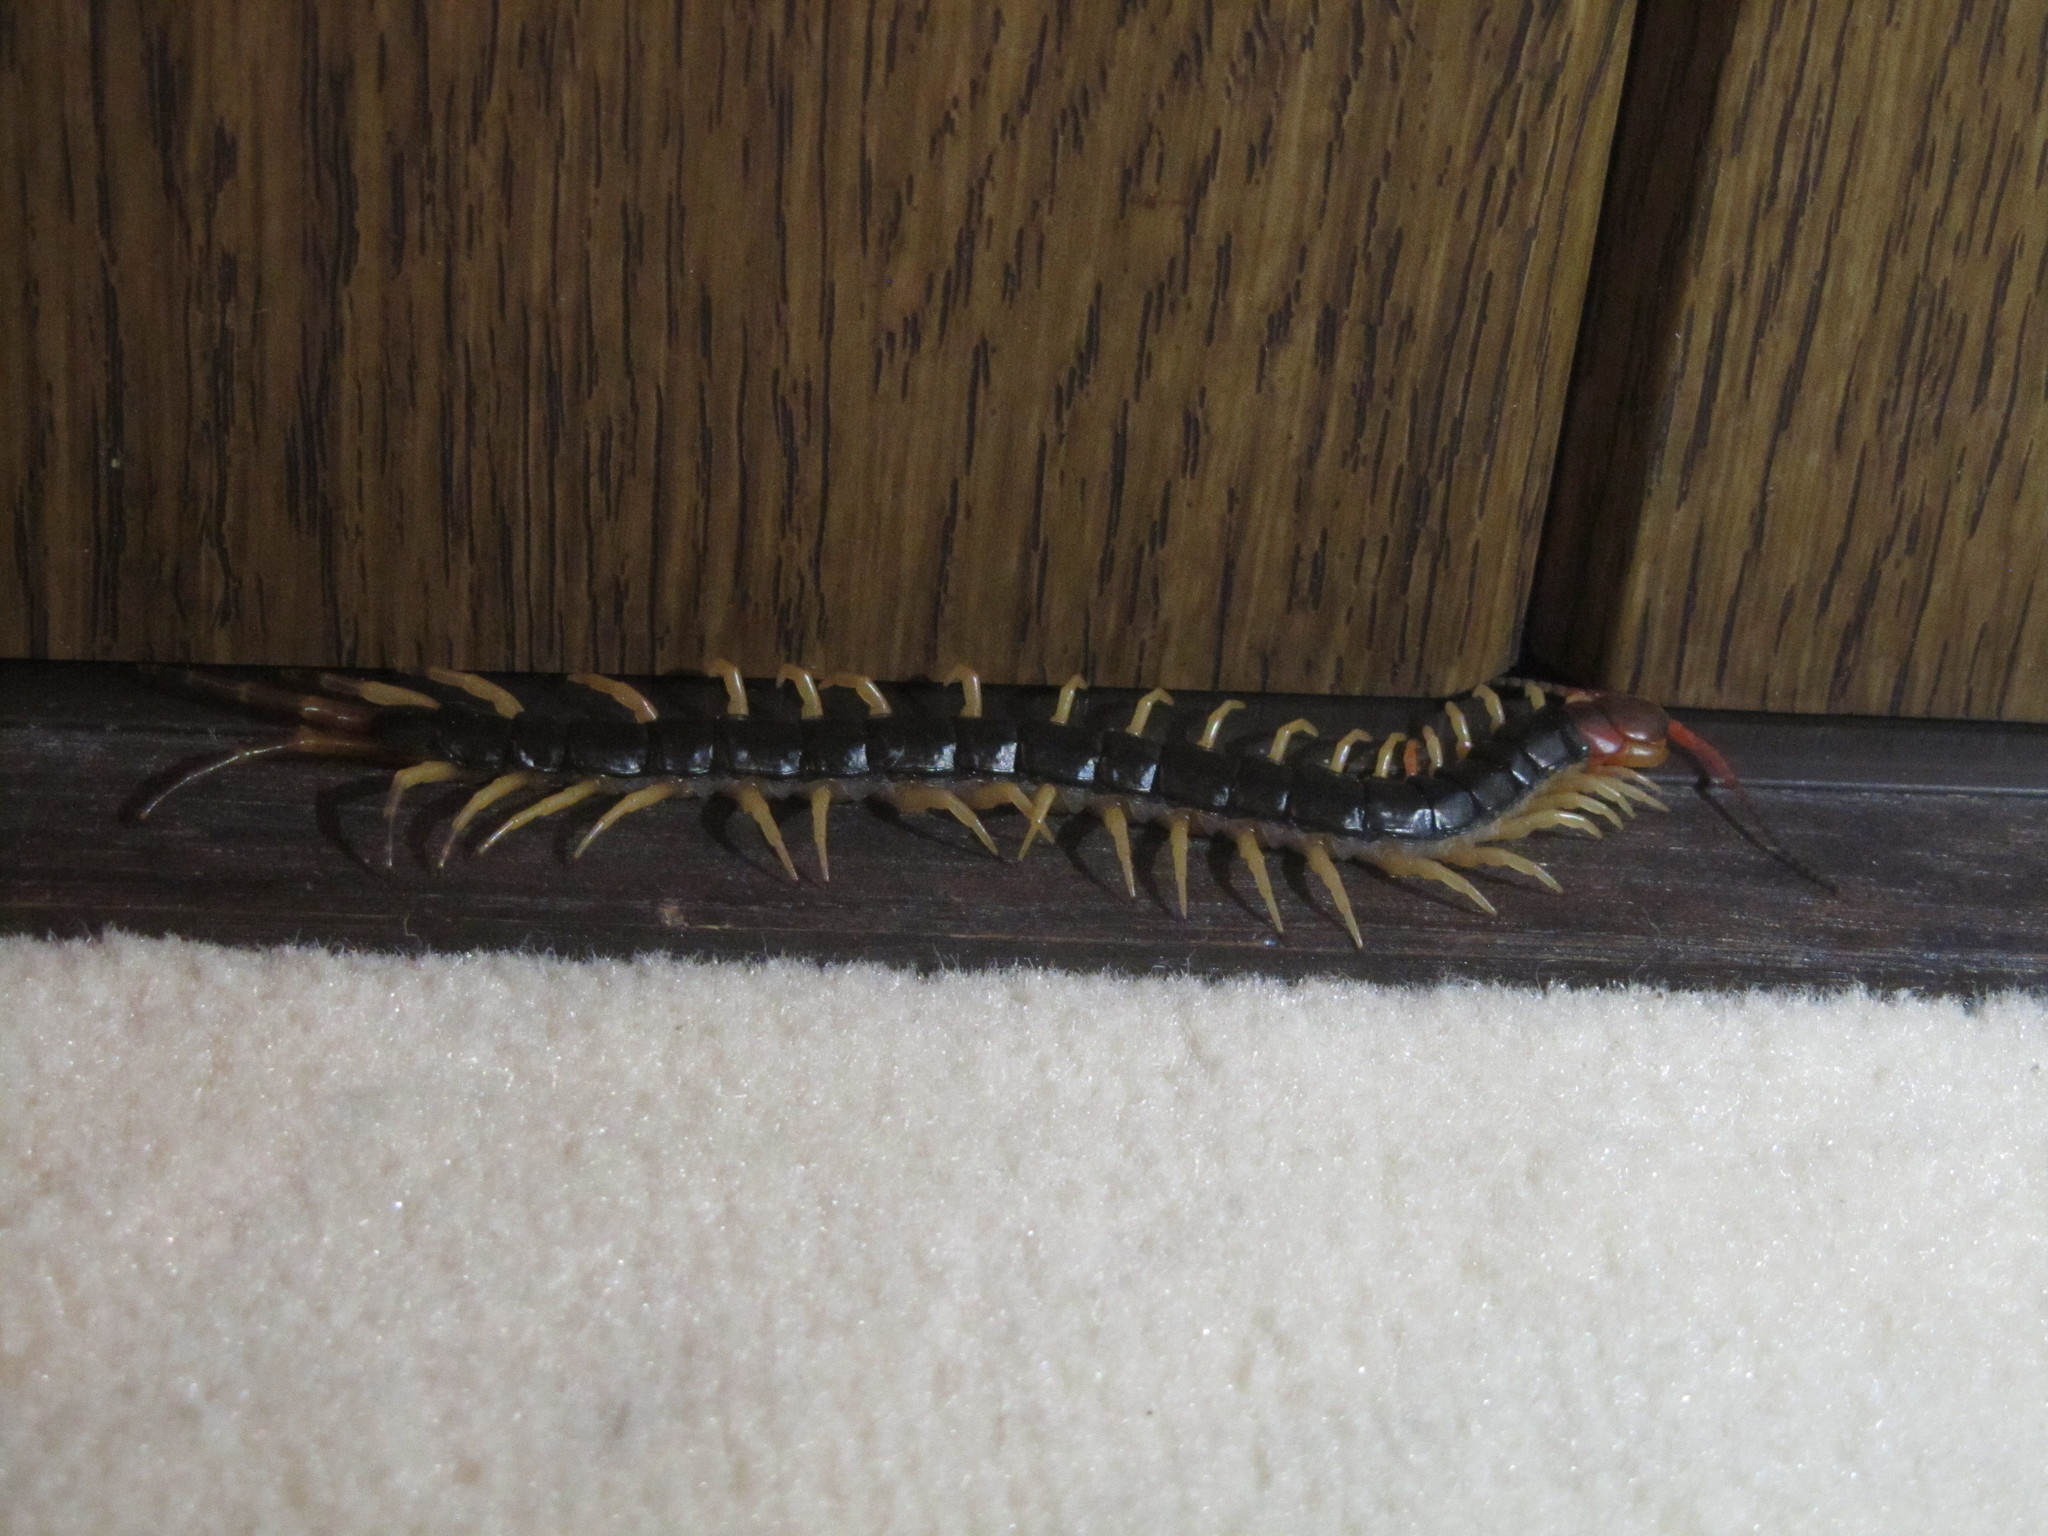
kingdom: Animalia
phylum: Arthropoda
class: Chilopoda
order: Scolopendromorpha
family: Scolopendridae
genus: Scolopendra
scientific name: Scolopendra mutilans
